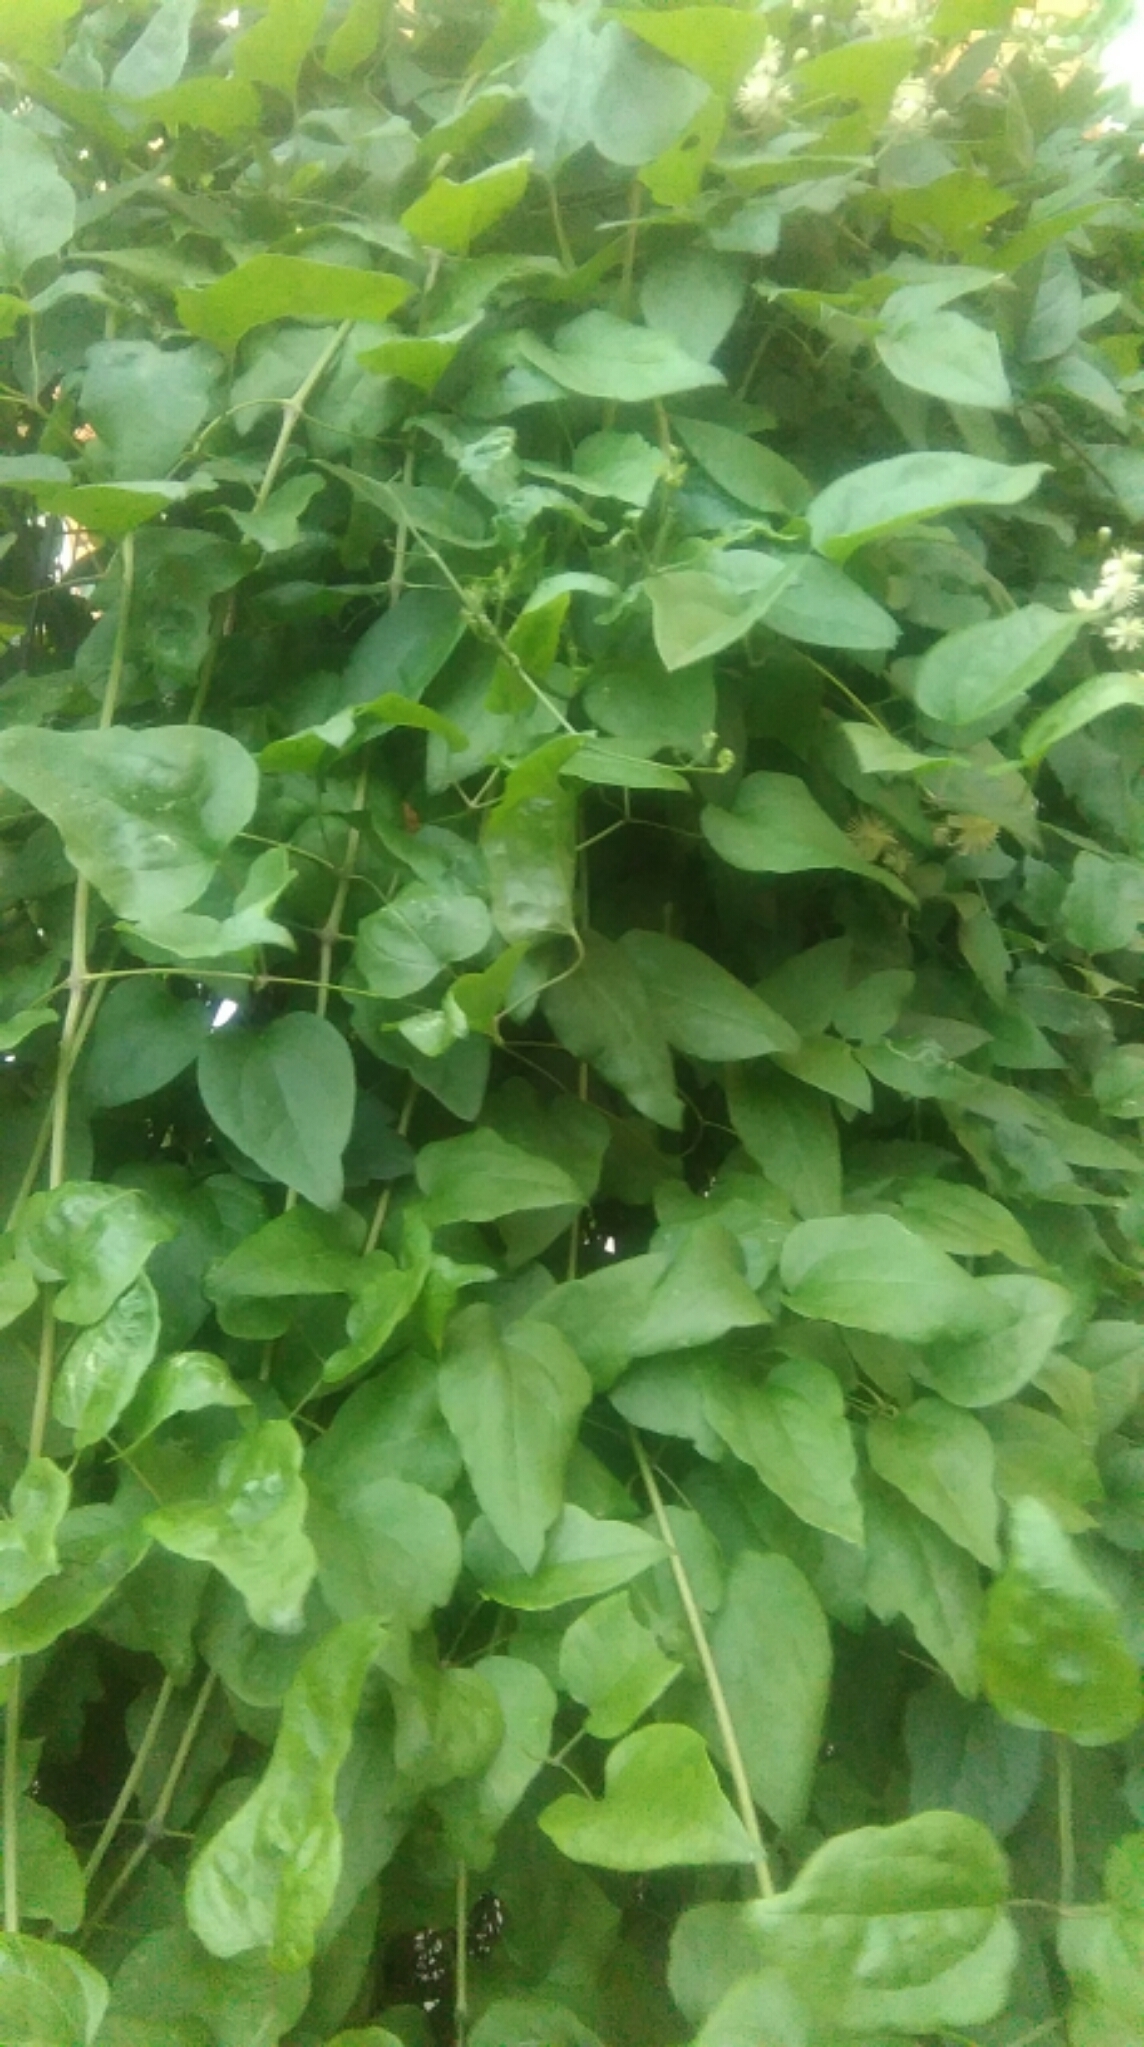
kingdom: Plantae
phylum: Tracheophyta
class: Magnoliopsida
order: Ranunculales
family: Ranunculaceae
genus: Clematis
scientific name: Clematis vitalba
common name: Evergreen clematis
